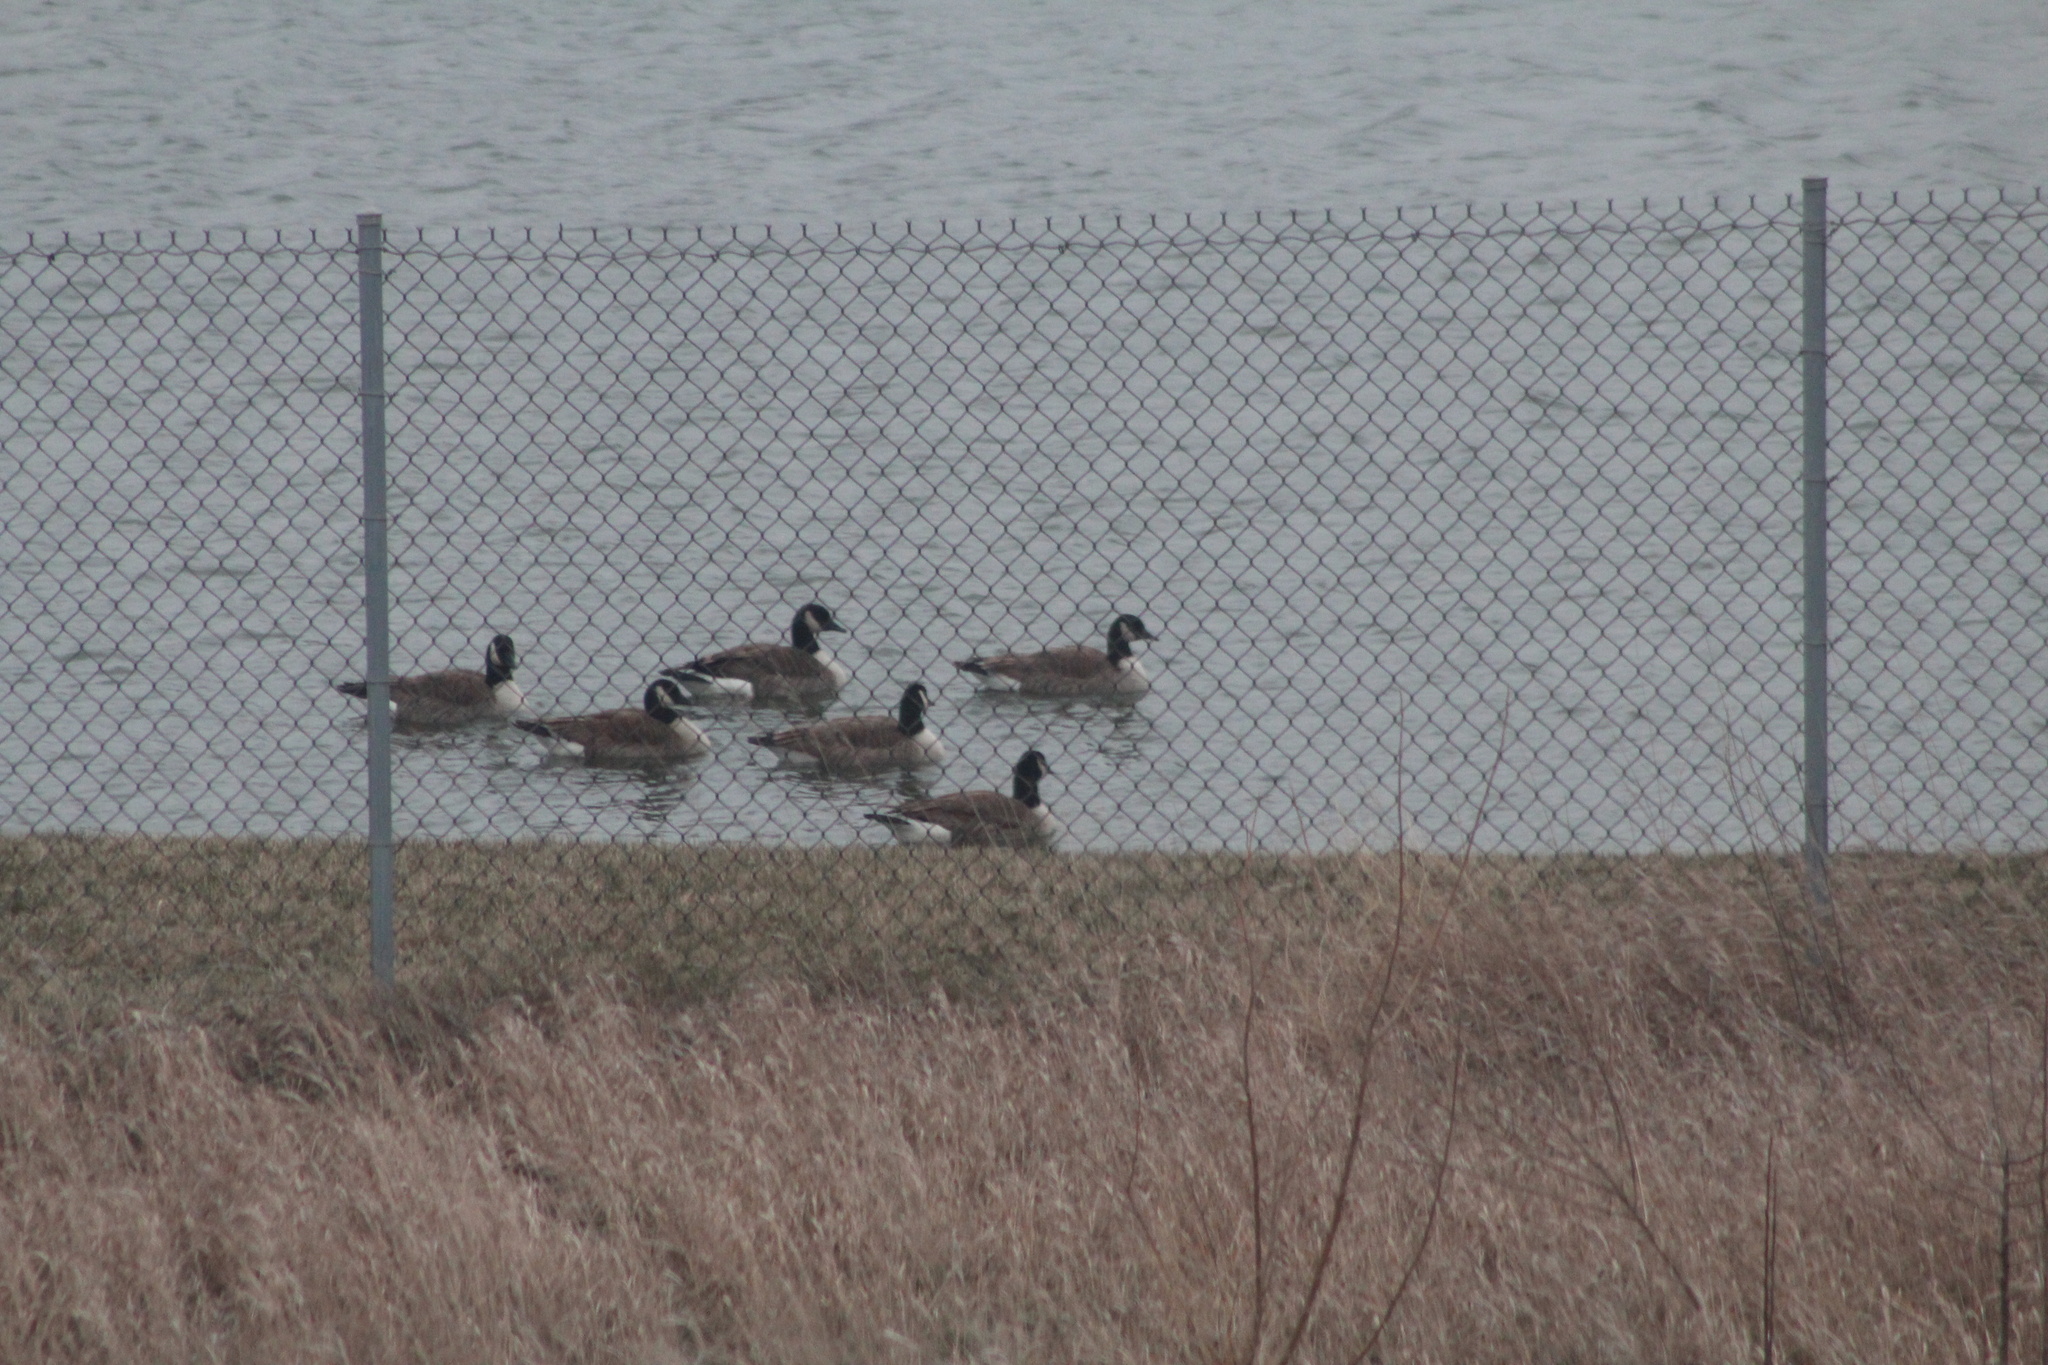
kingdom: Animalia
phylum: Chordata
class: Aves
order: Anseriformes
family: Anatidae
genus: Branta
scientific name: Branta canadensis
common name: Canada goose
